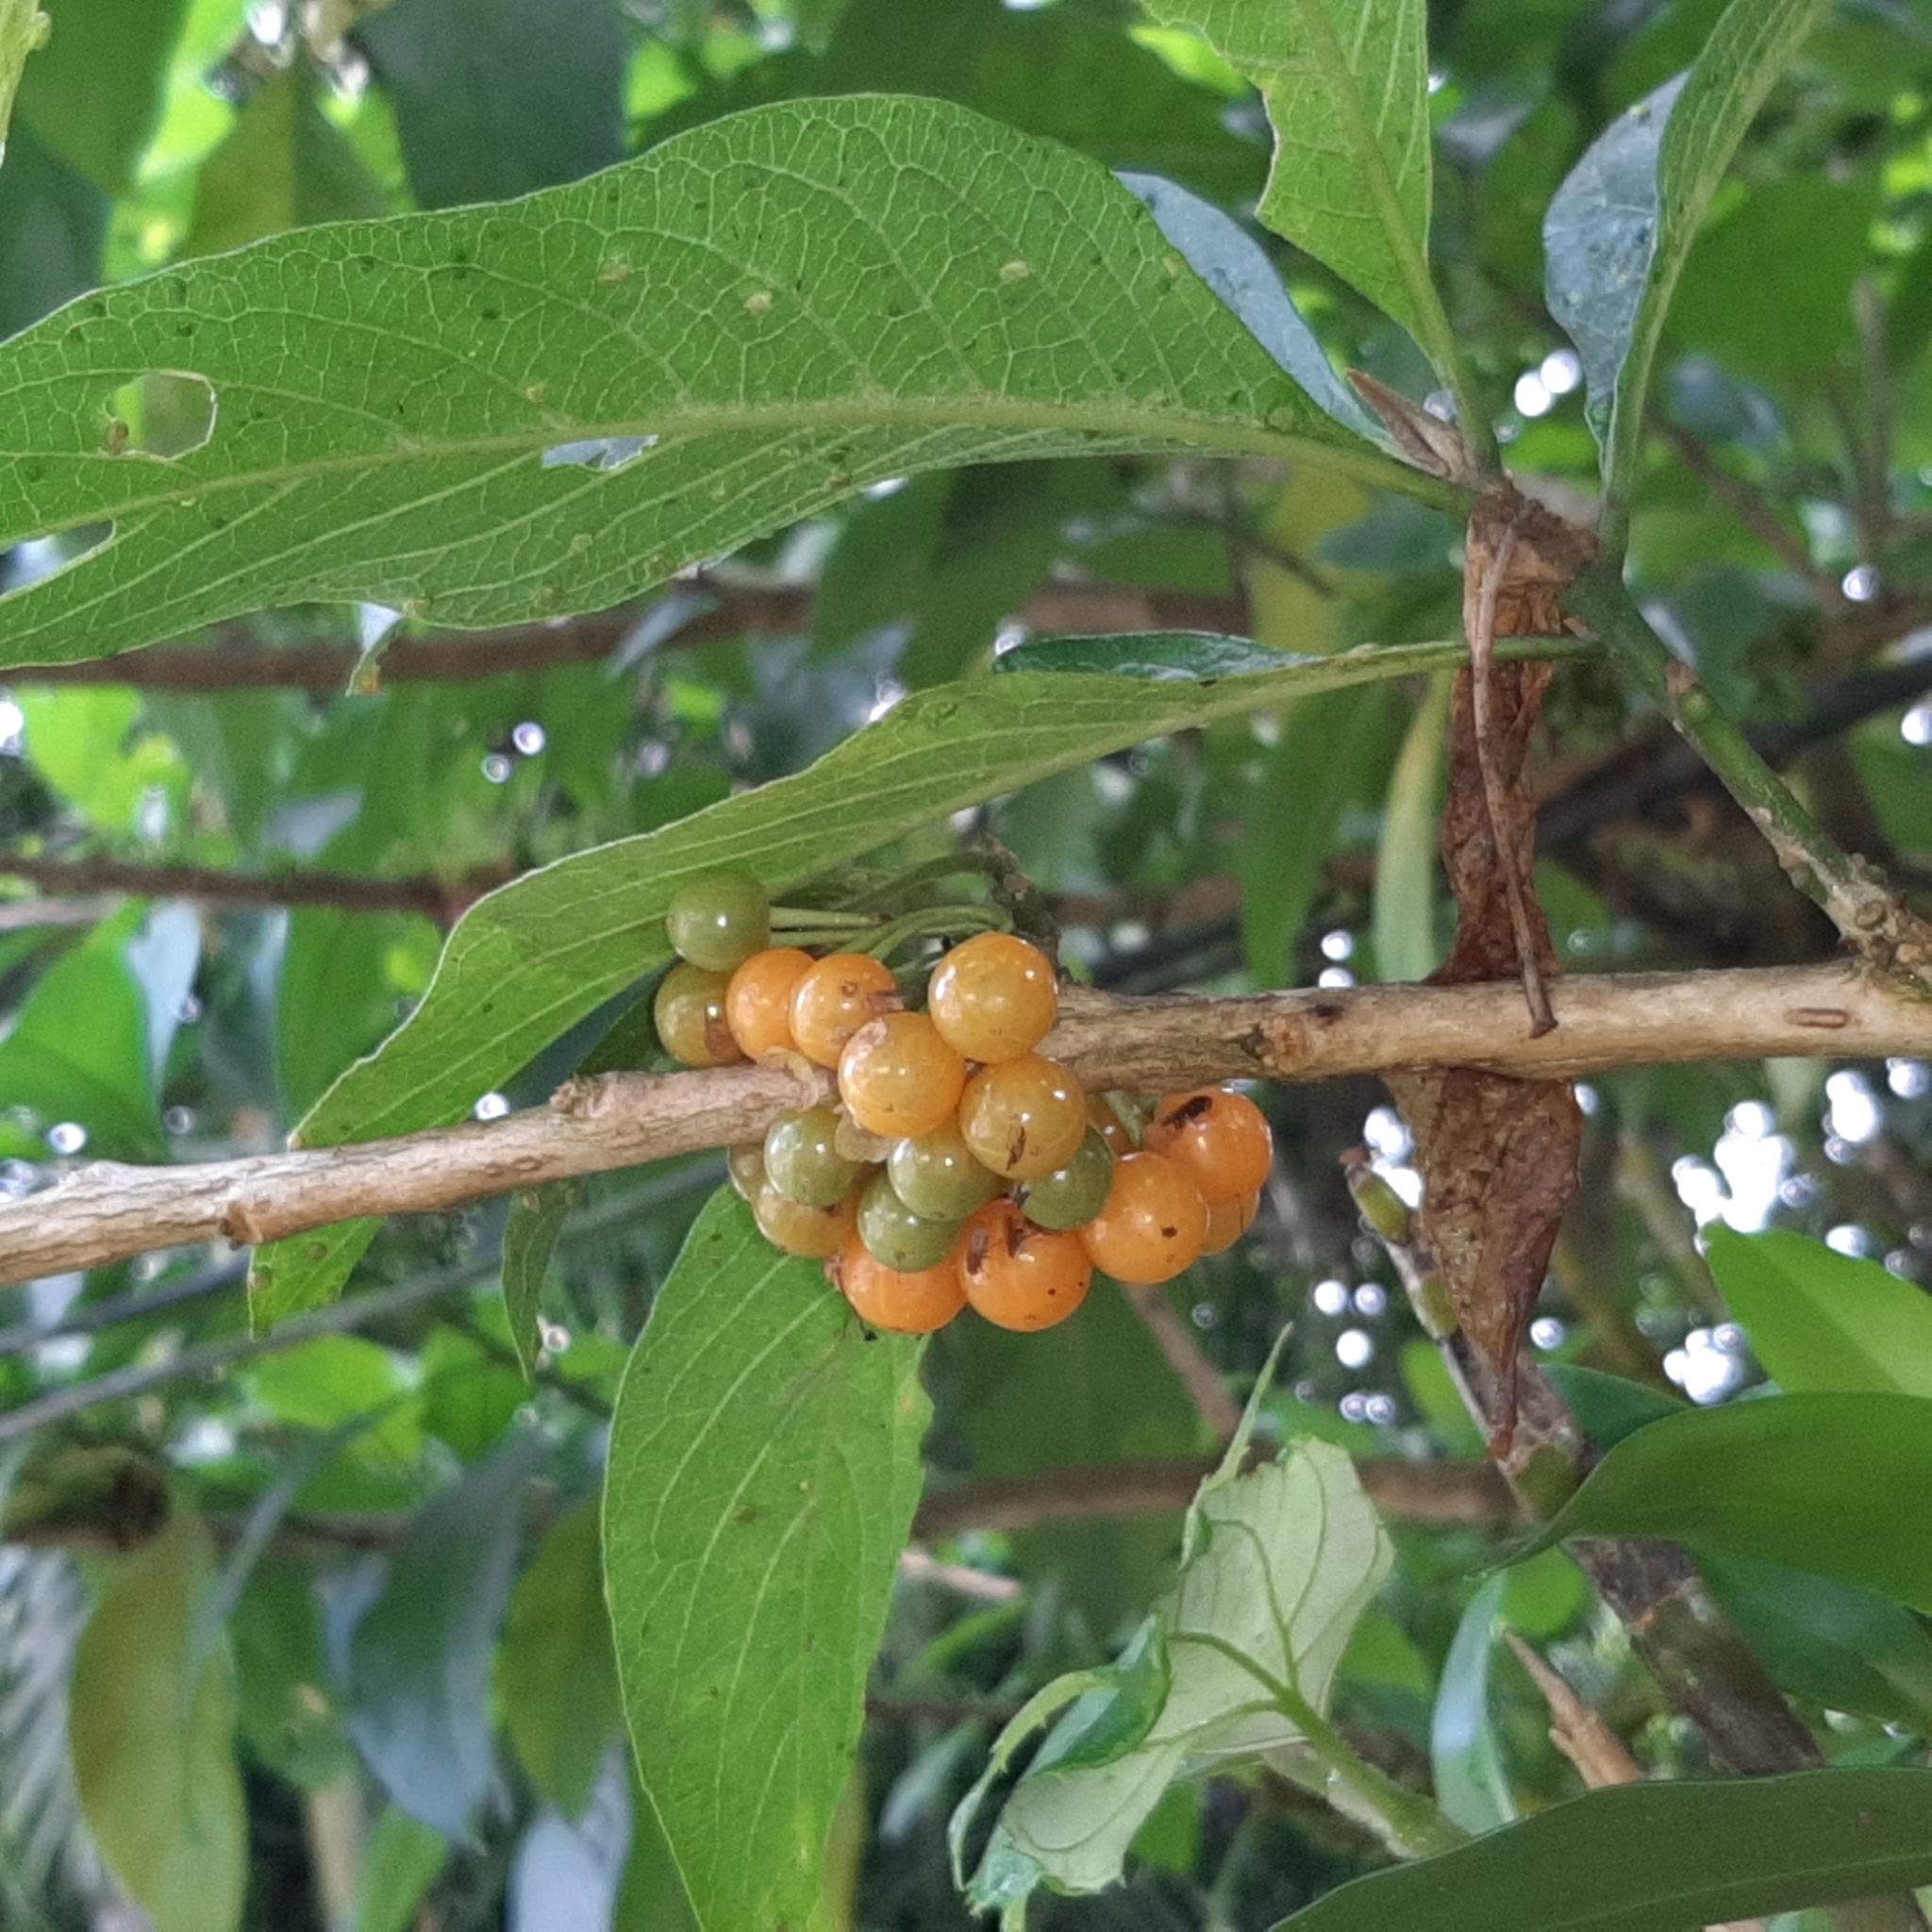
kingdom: Plantae
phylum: Tracheophyta
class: Magnoliopsida
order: Solanales
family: Solanaceae
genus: Iochroma
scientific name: Iochroma arborescens
